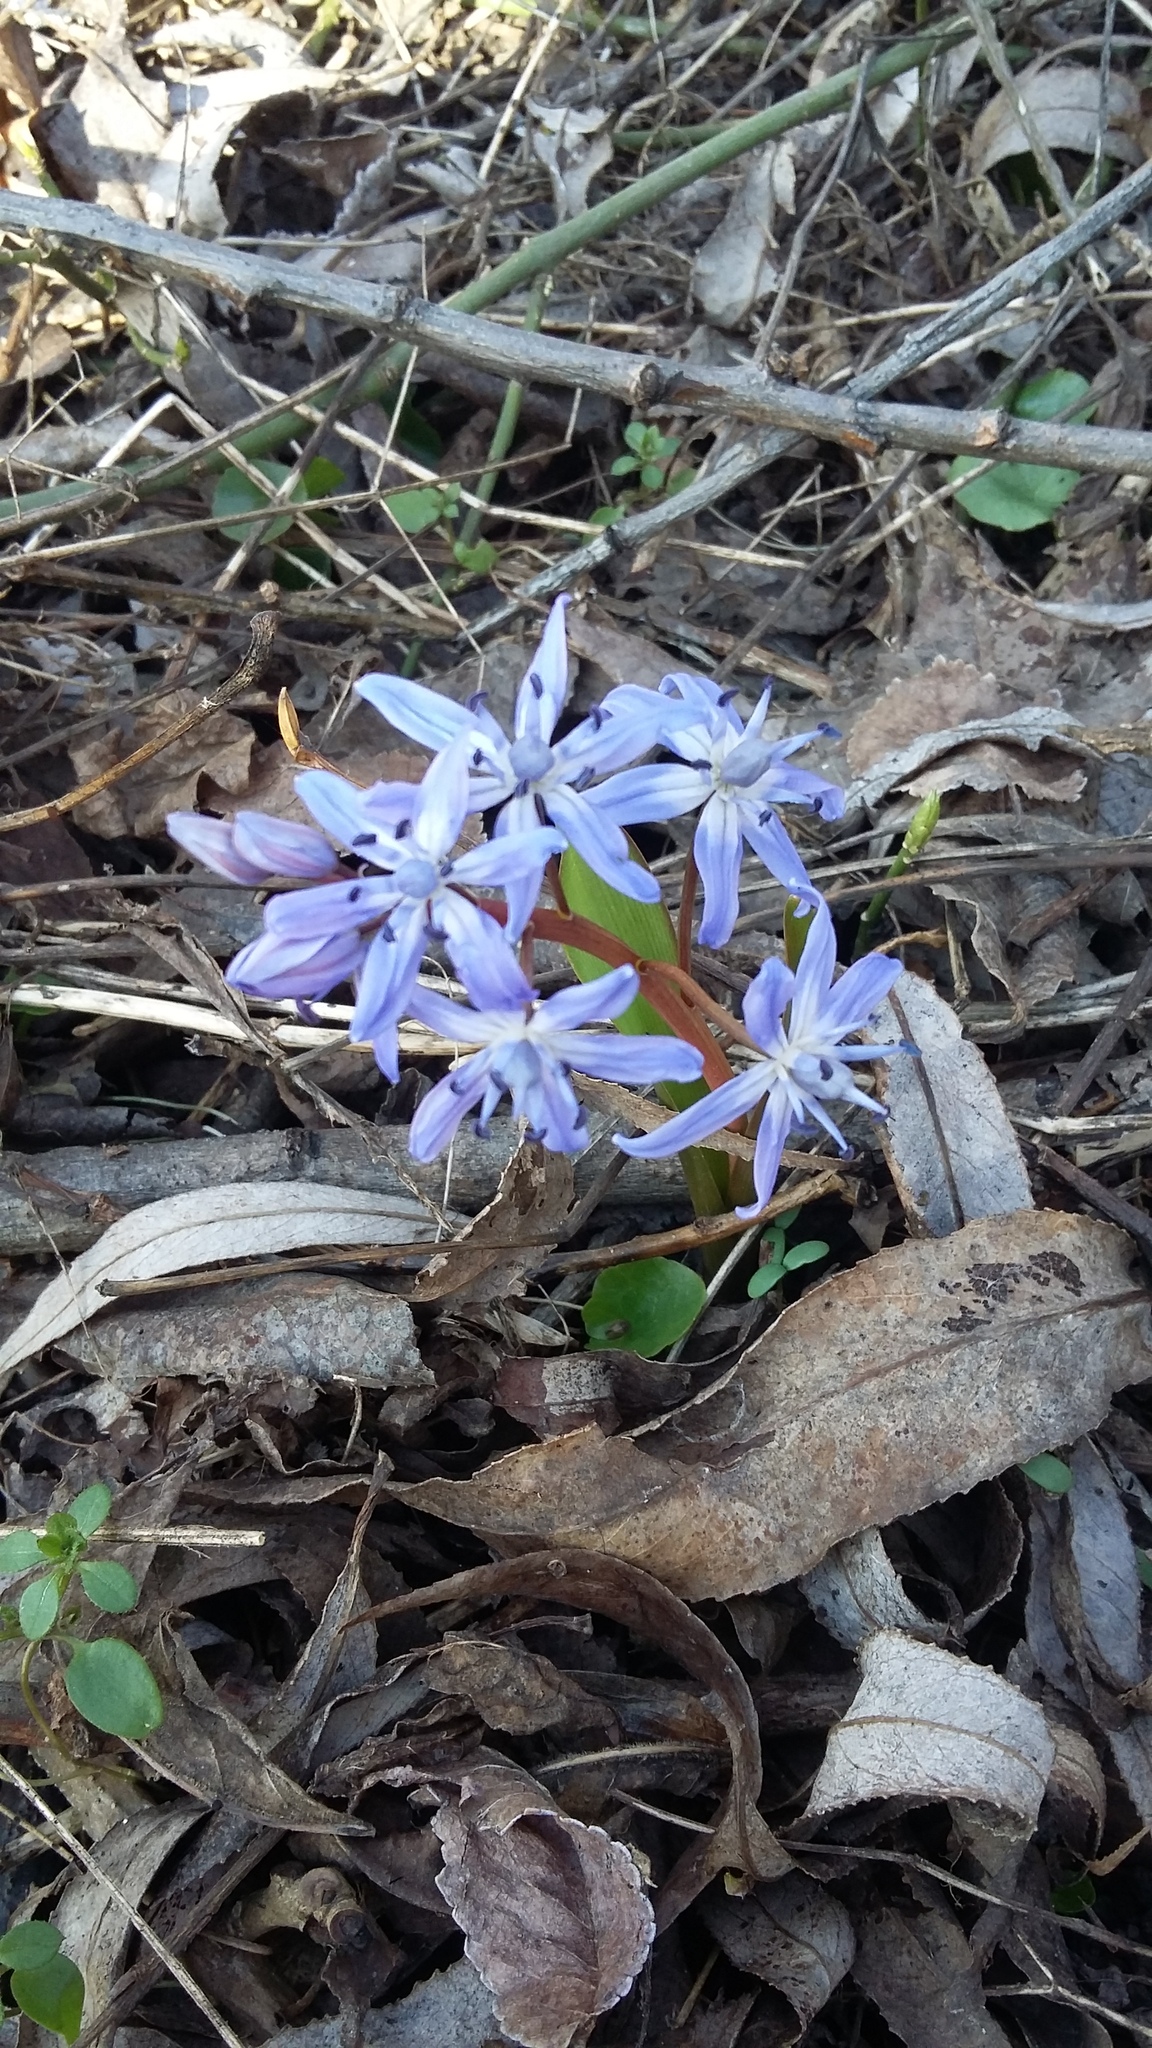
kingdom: Plantae
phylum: Tracheophyta
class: Liliopsida
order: Asparagales
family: Asparagaceae
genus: Scilla
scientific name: Scilla bifolia
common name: Alpine squill
